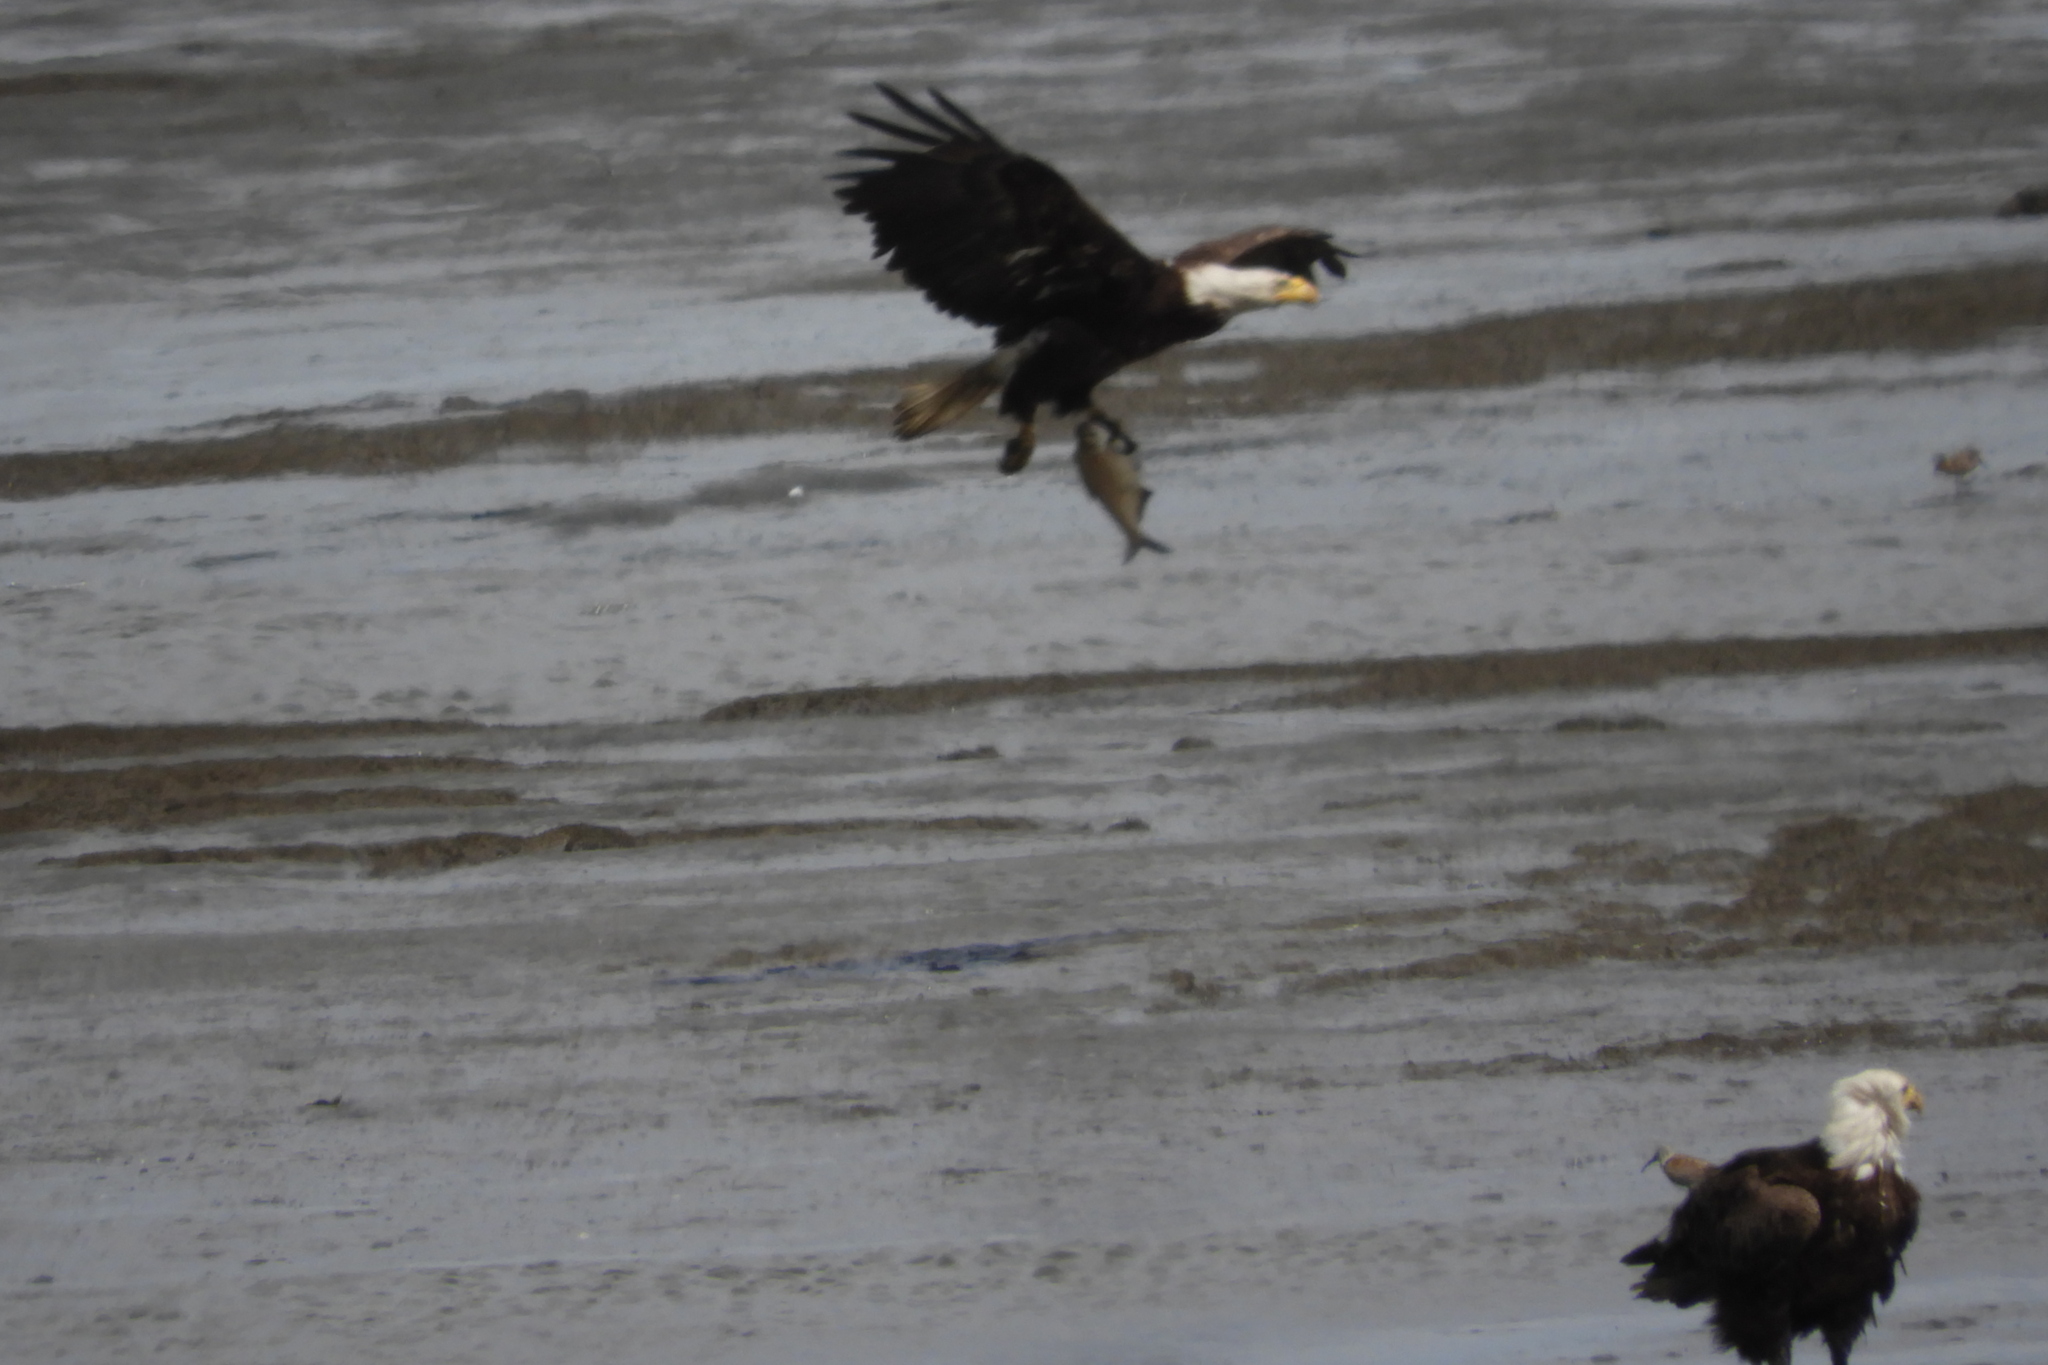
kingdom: Animalia
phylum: Chordata
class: Aves
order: Accipitriformes
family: Accipitridae
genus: Haliaeetus
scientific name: Haliaeetus leucocephalus
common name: Bald eagle
